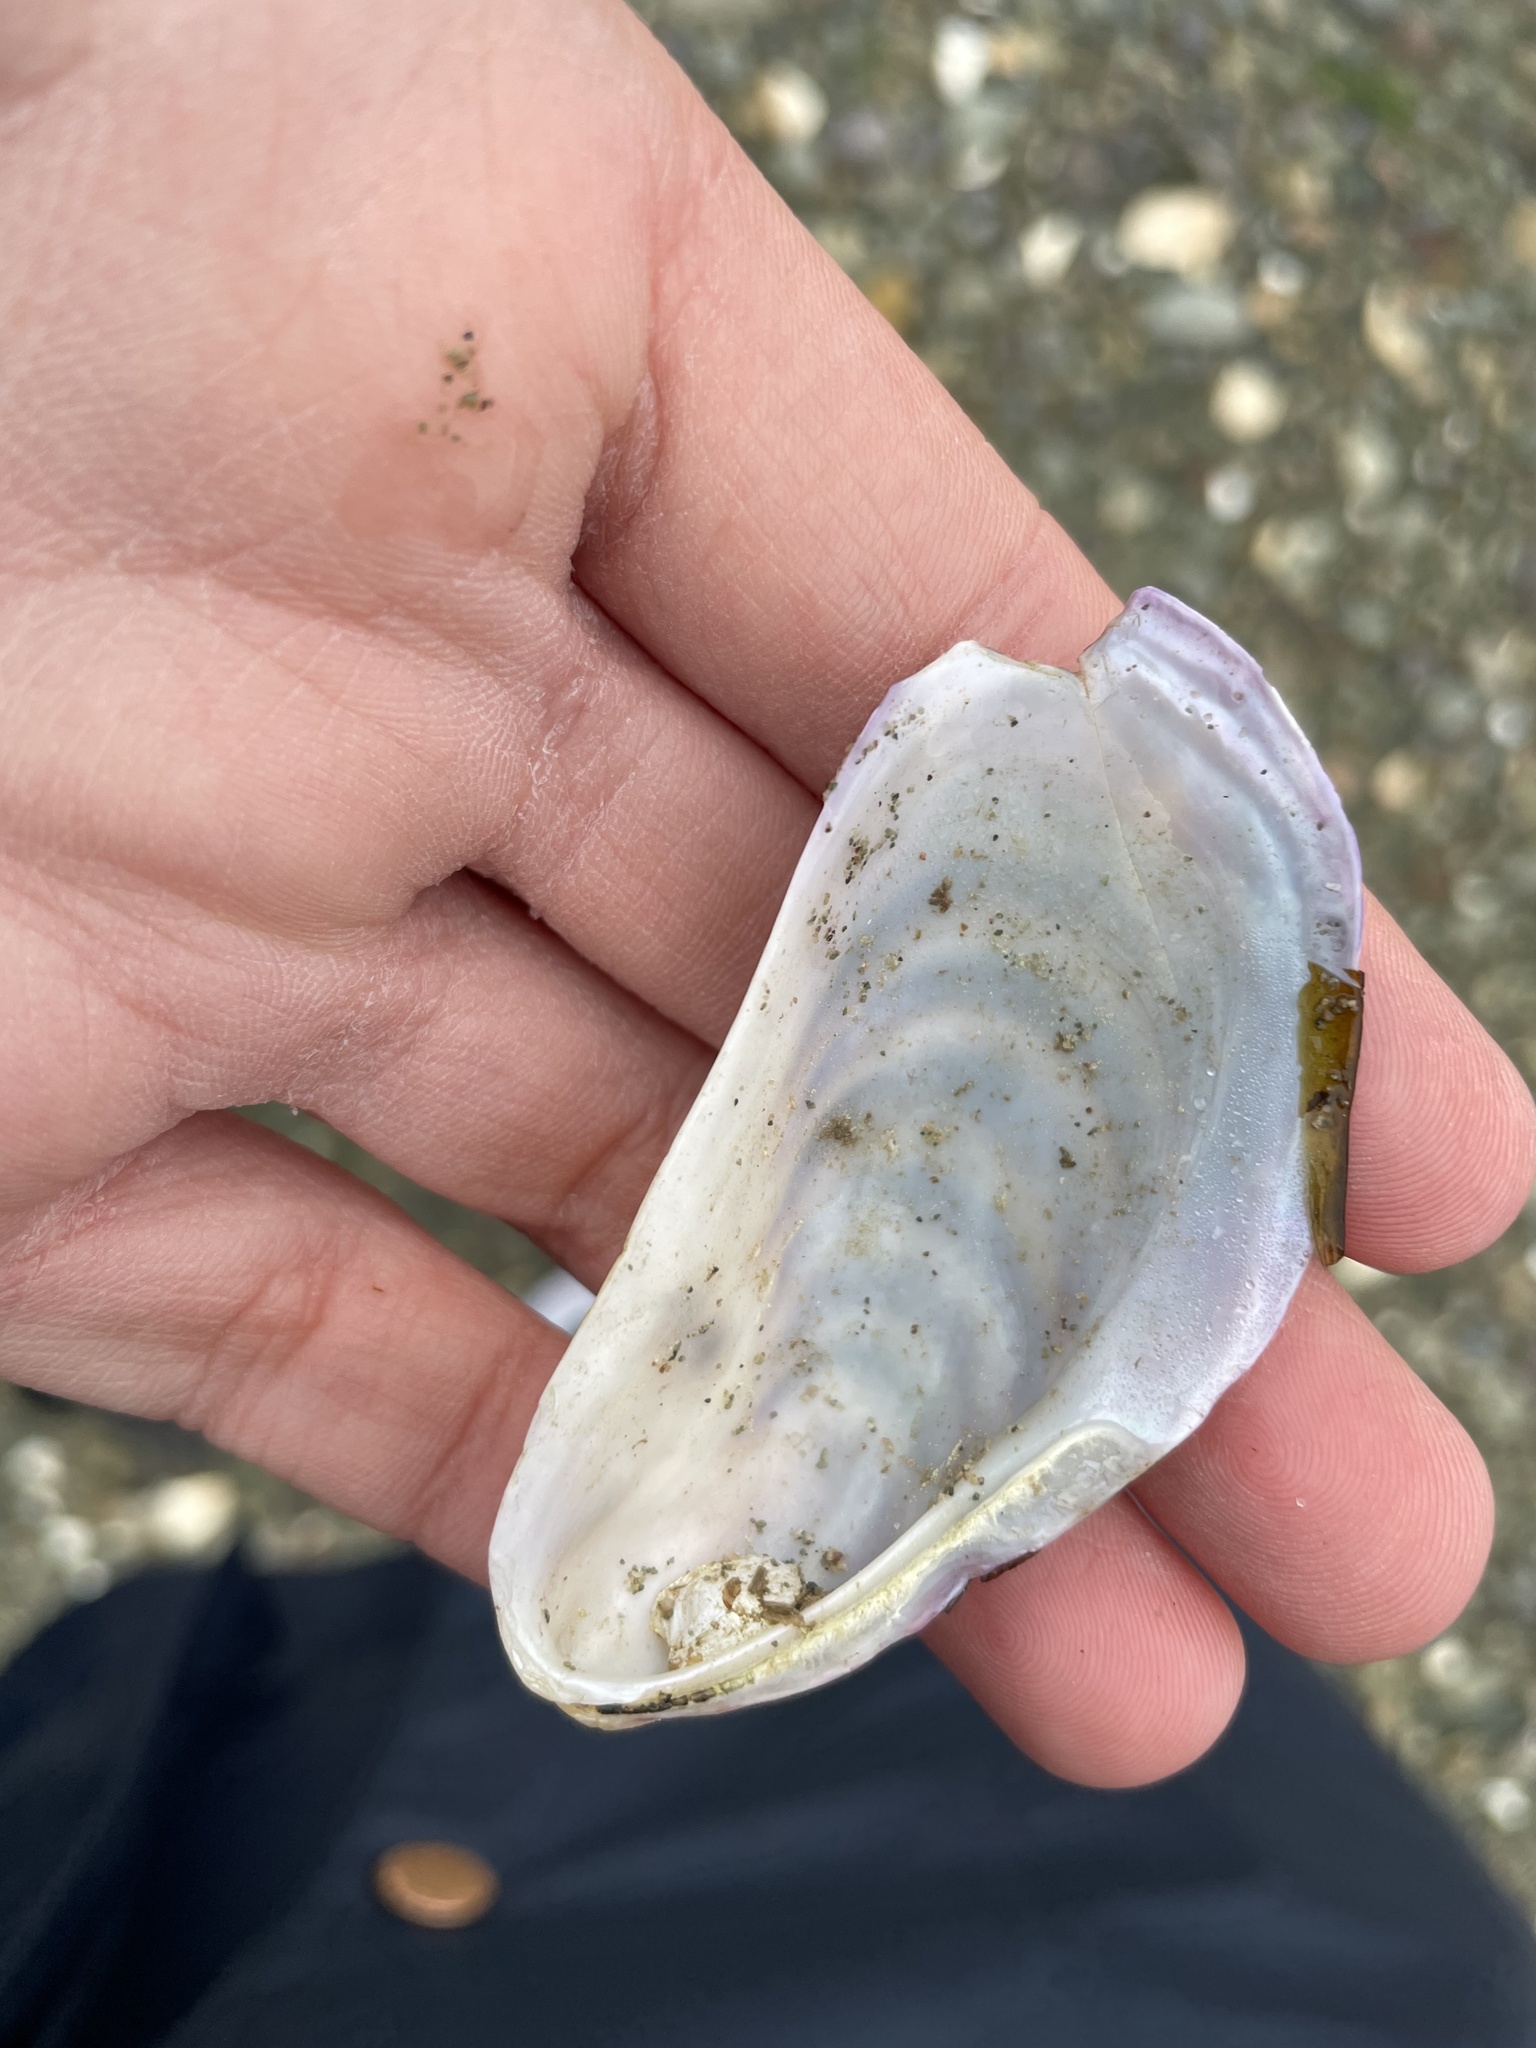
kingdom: Animalia
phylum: Mollusca
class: Bivalvia
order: Mytilida
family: Mytilidae
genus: Modiolus
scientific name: Modiolus modiolus
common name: Horse-mussel
